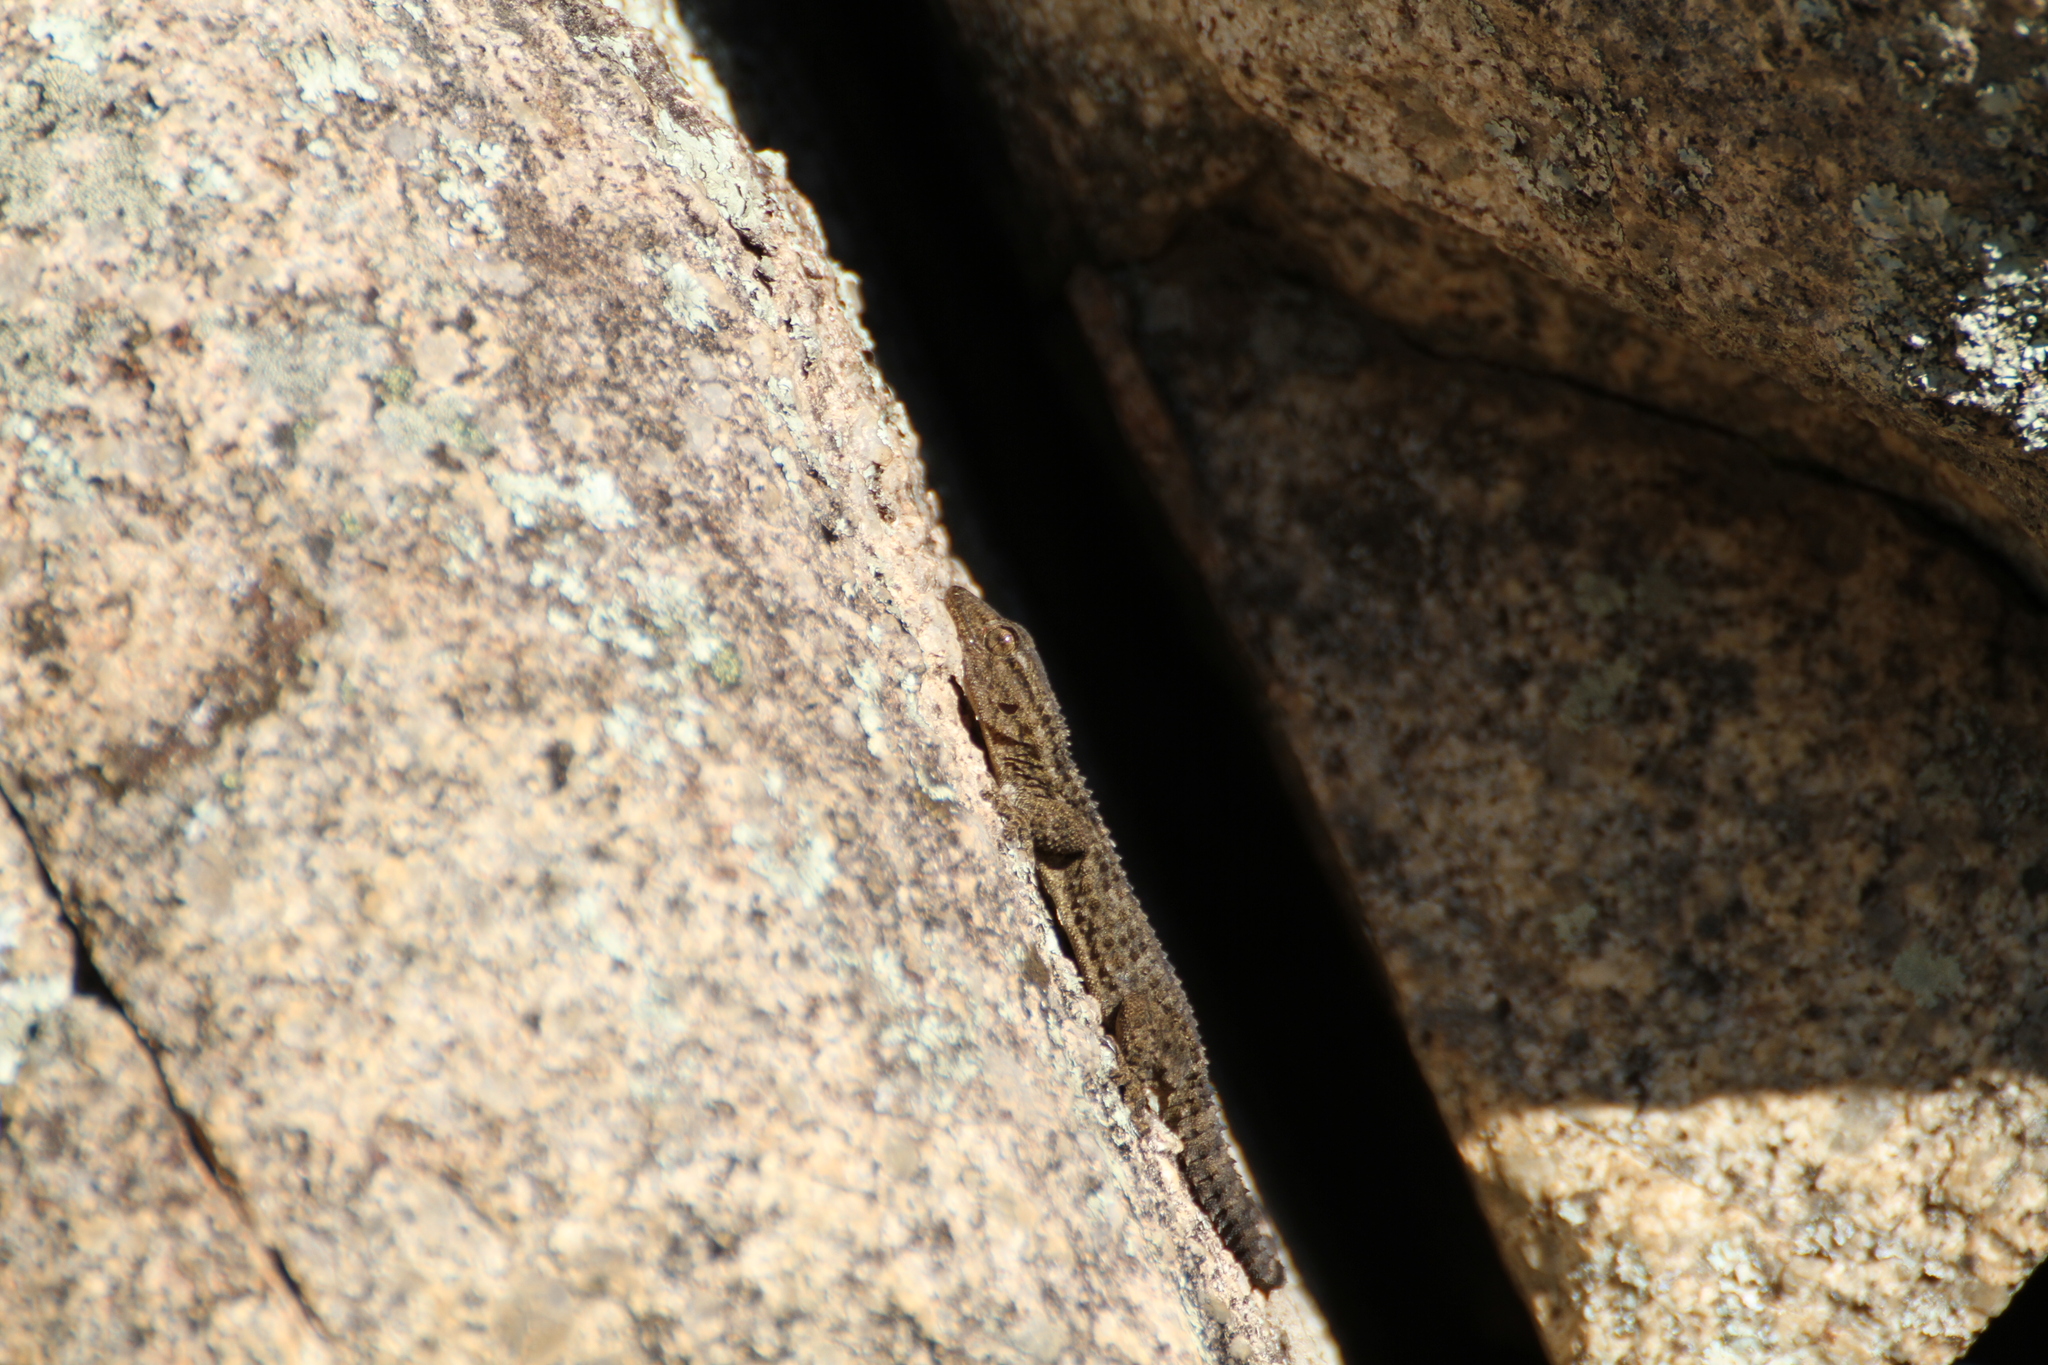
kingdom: Animalia
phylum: Chordata
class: Squamata
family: Phyllodactylidae
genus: Tarentola
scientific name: Tarentola mauritanica
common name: Moorish gecko
